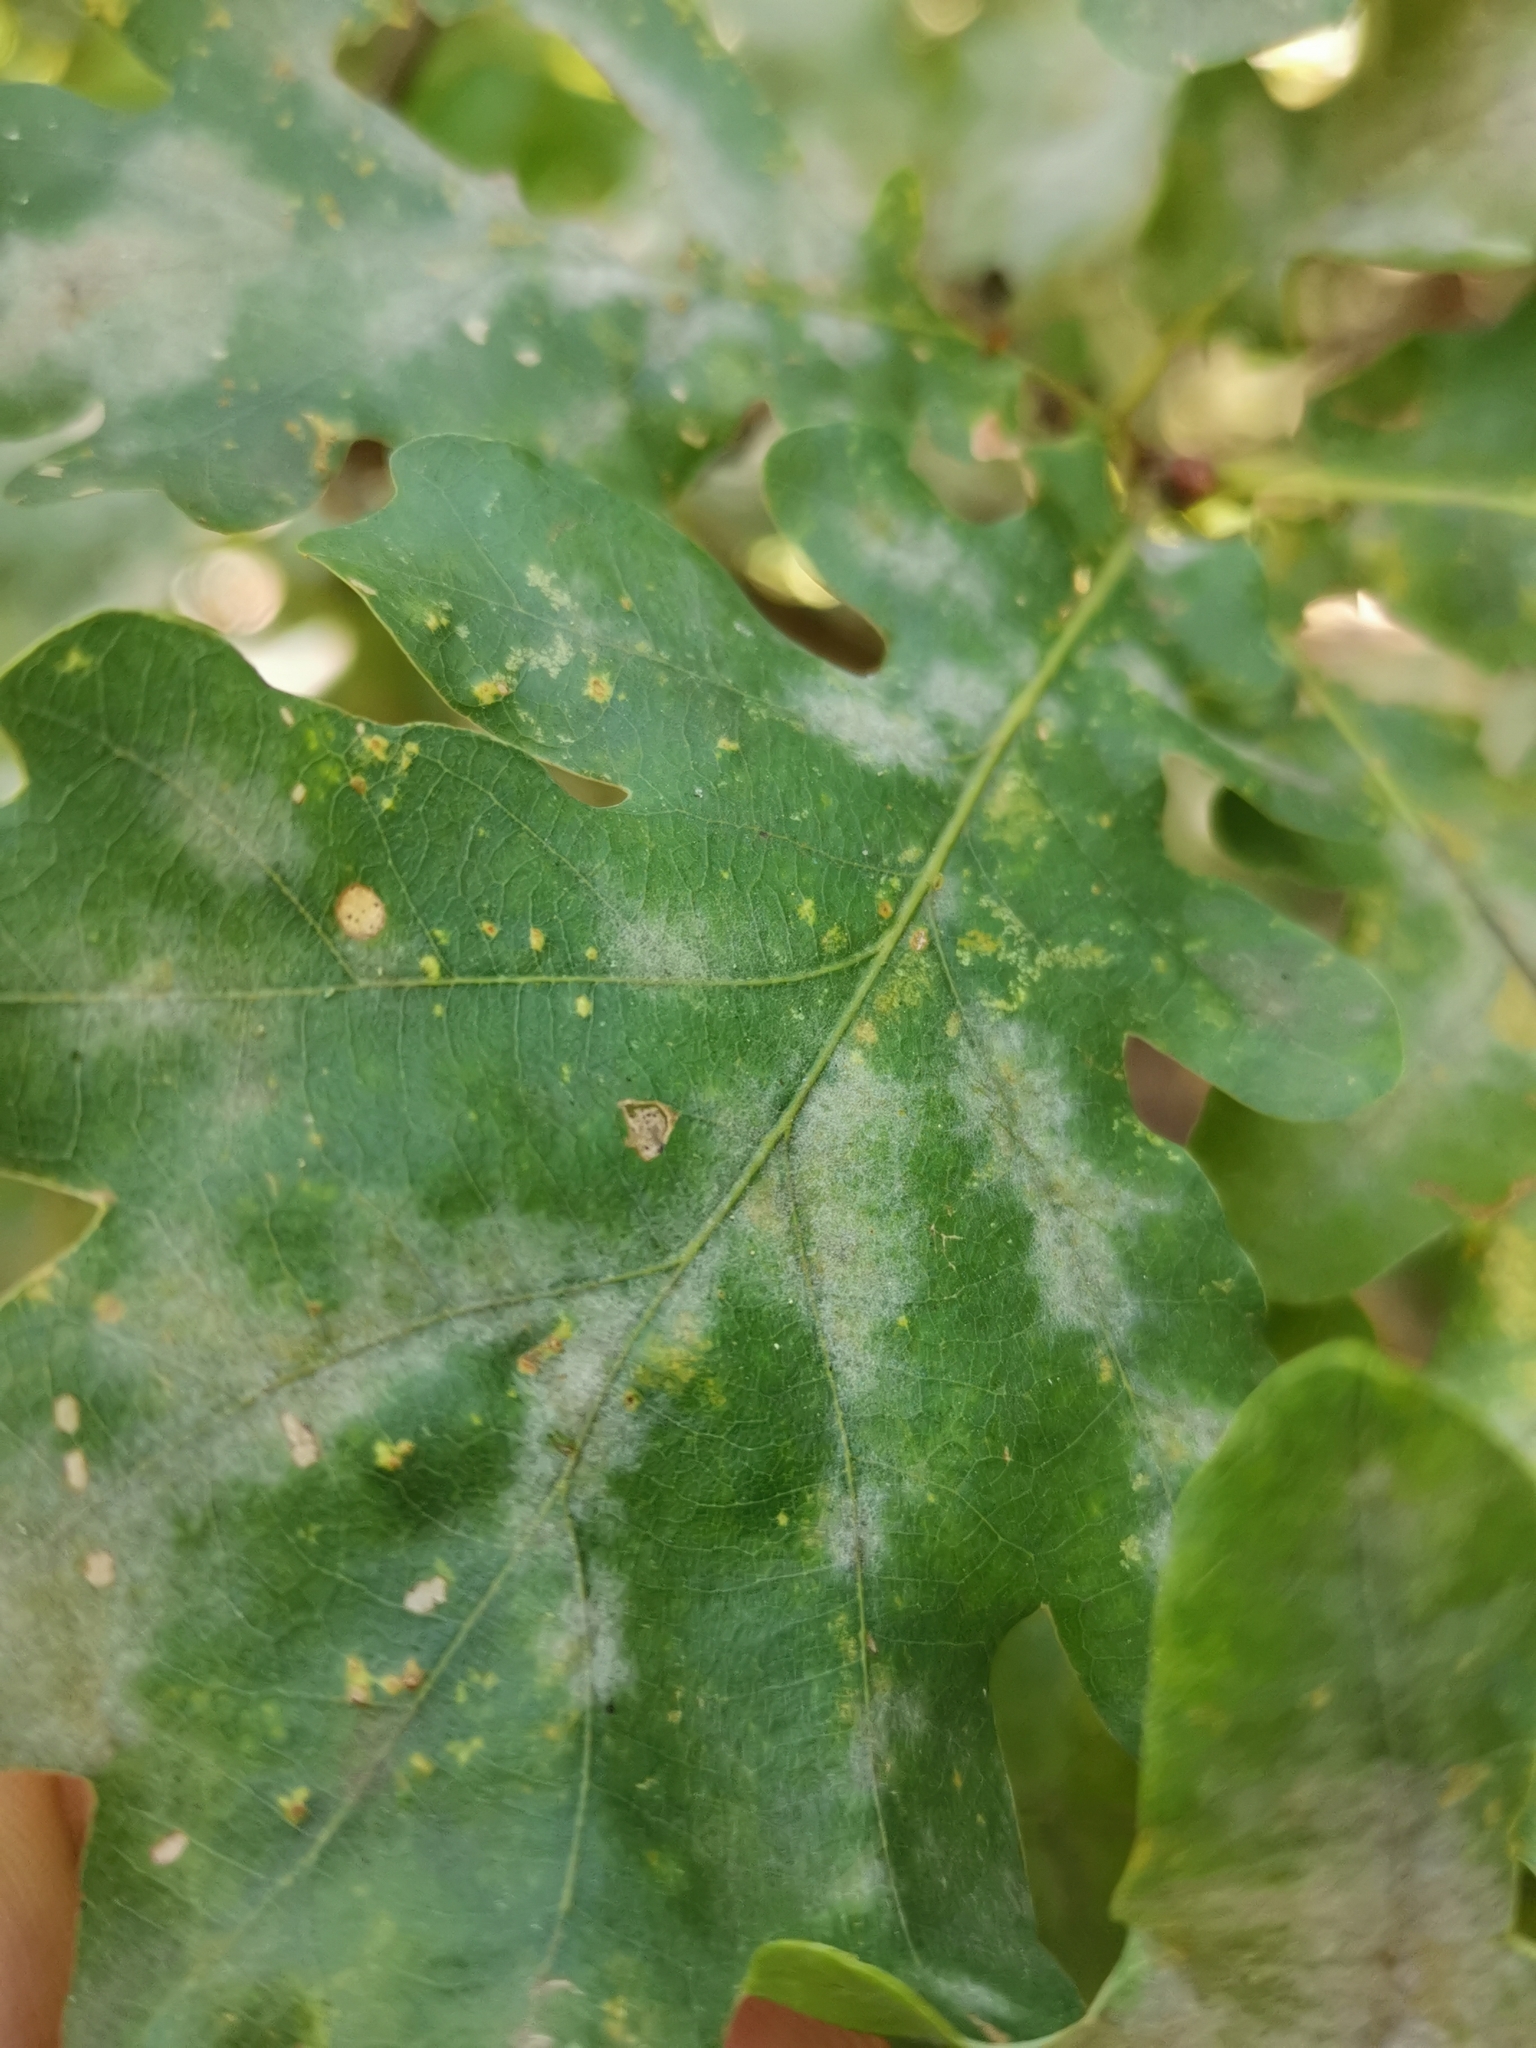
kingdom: Fungi
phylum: Ascomycota
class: Leotiomycetes
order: Helotiales
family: Erysiphaceae
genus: Erysiphe
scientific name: Erysiphe
